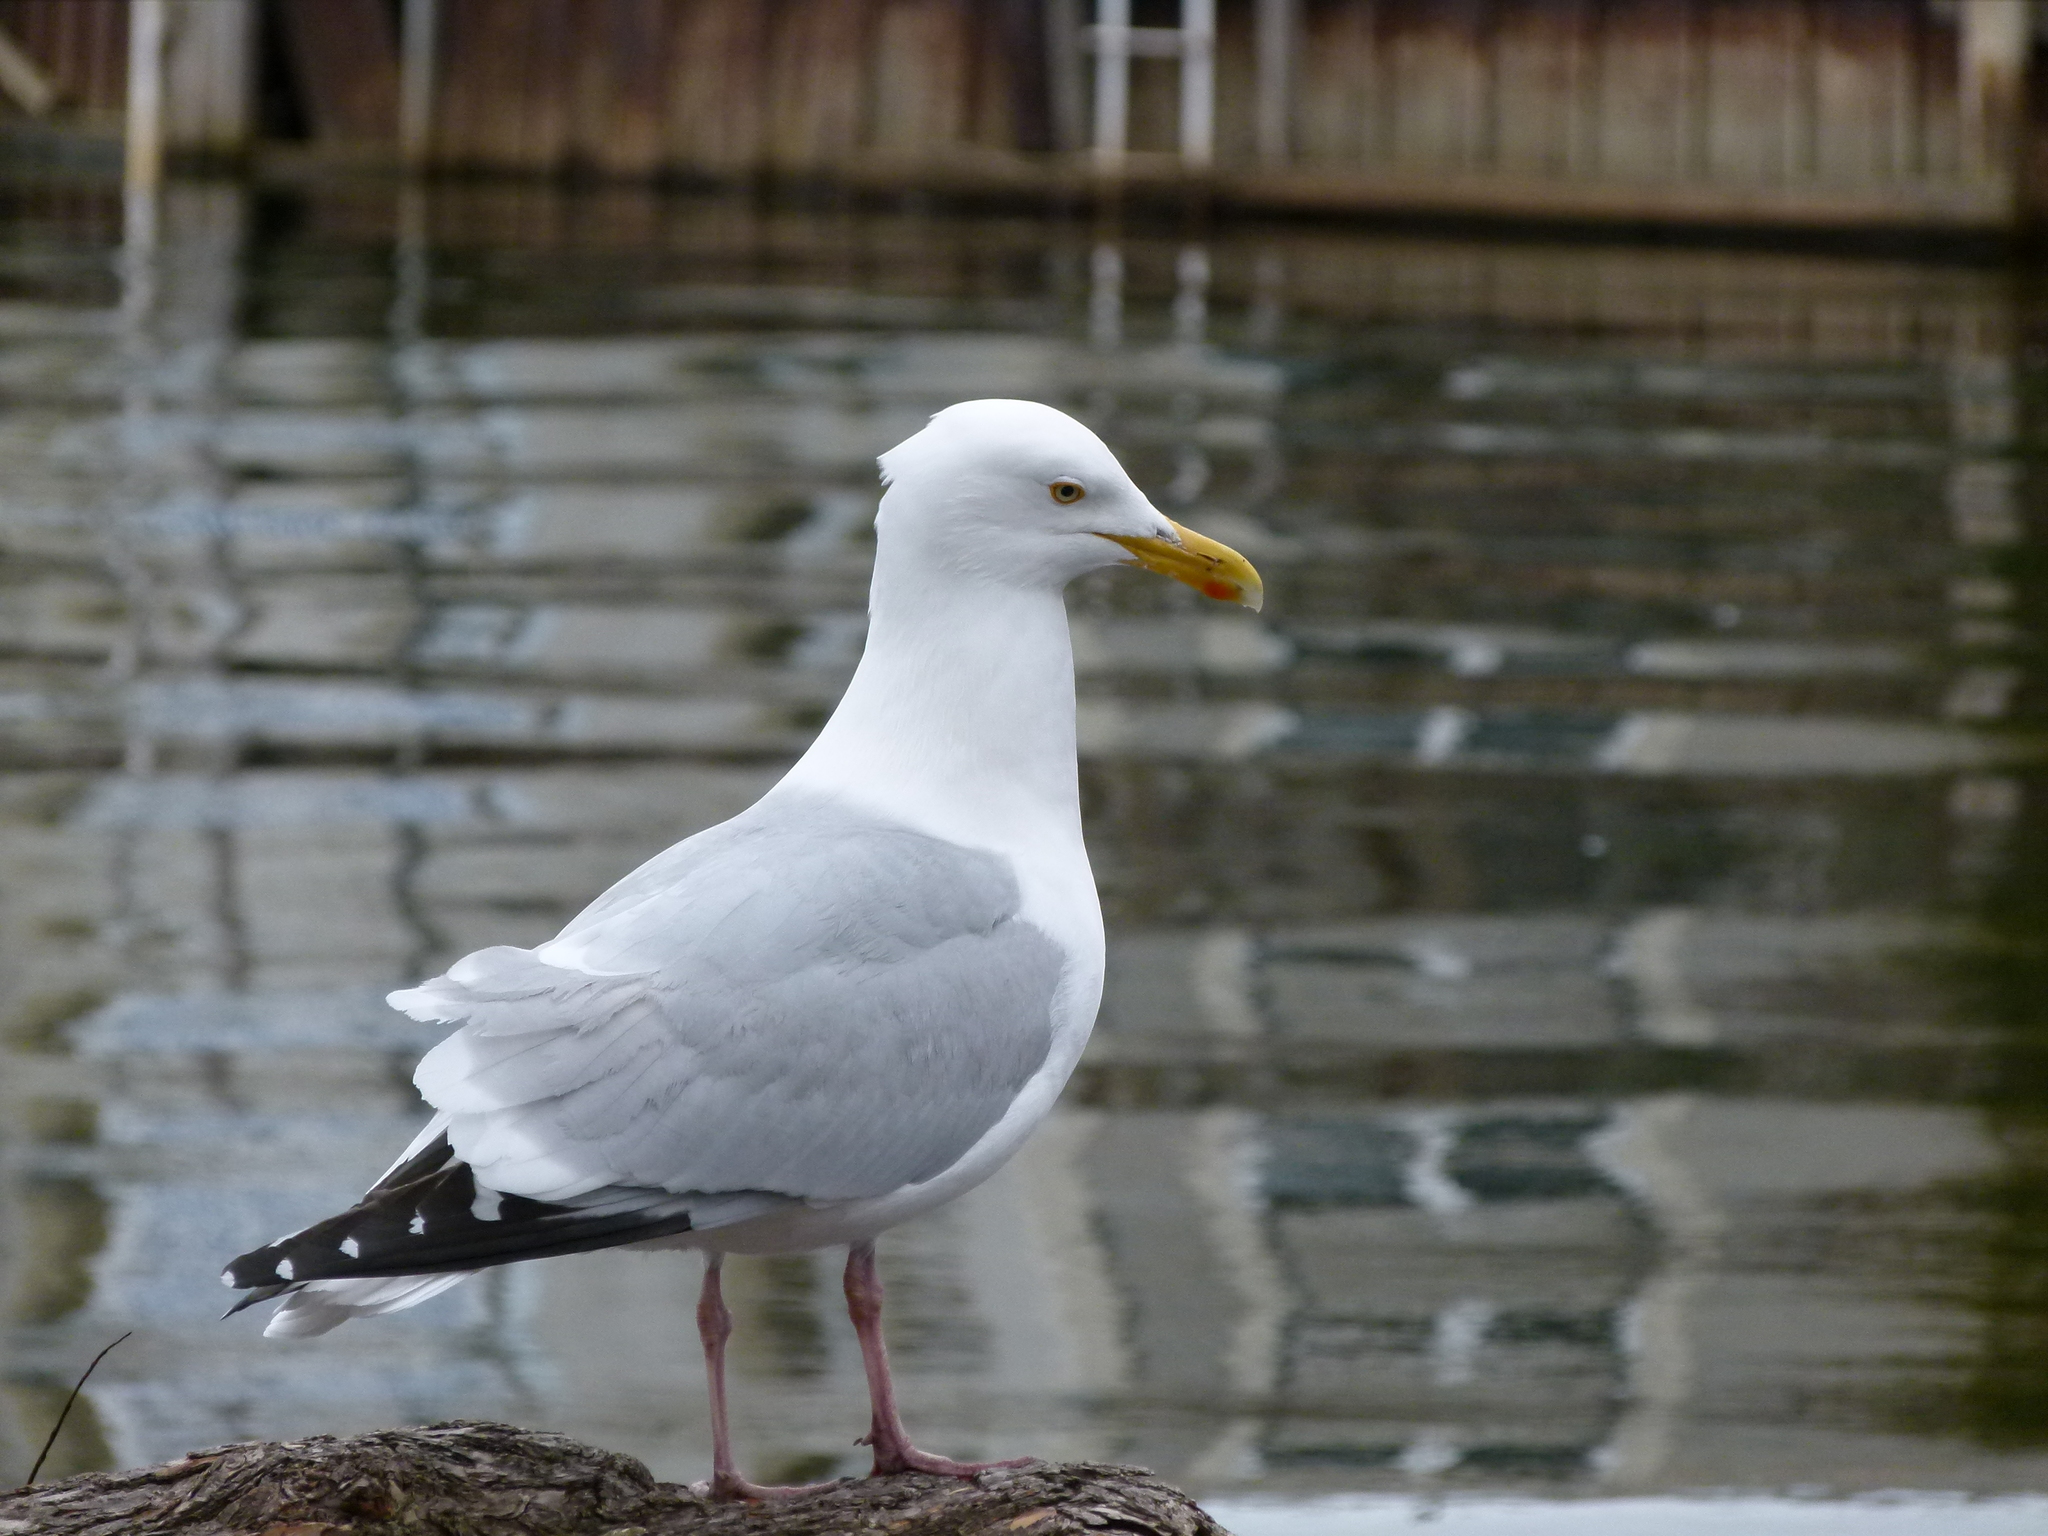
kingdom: Animalia
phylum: Chordata
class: Aves
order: Charadriiformes
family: Laridae
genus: Larus
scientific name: Larus argentatus
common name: Herring gull
